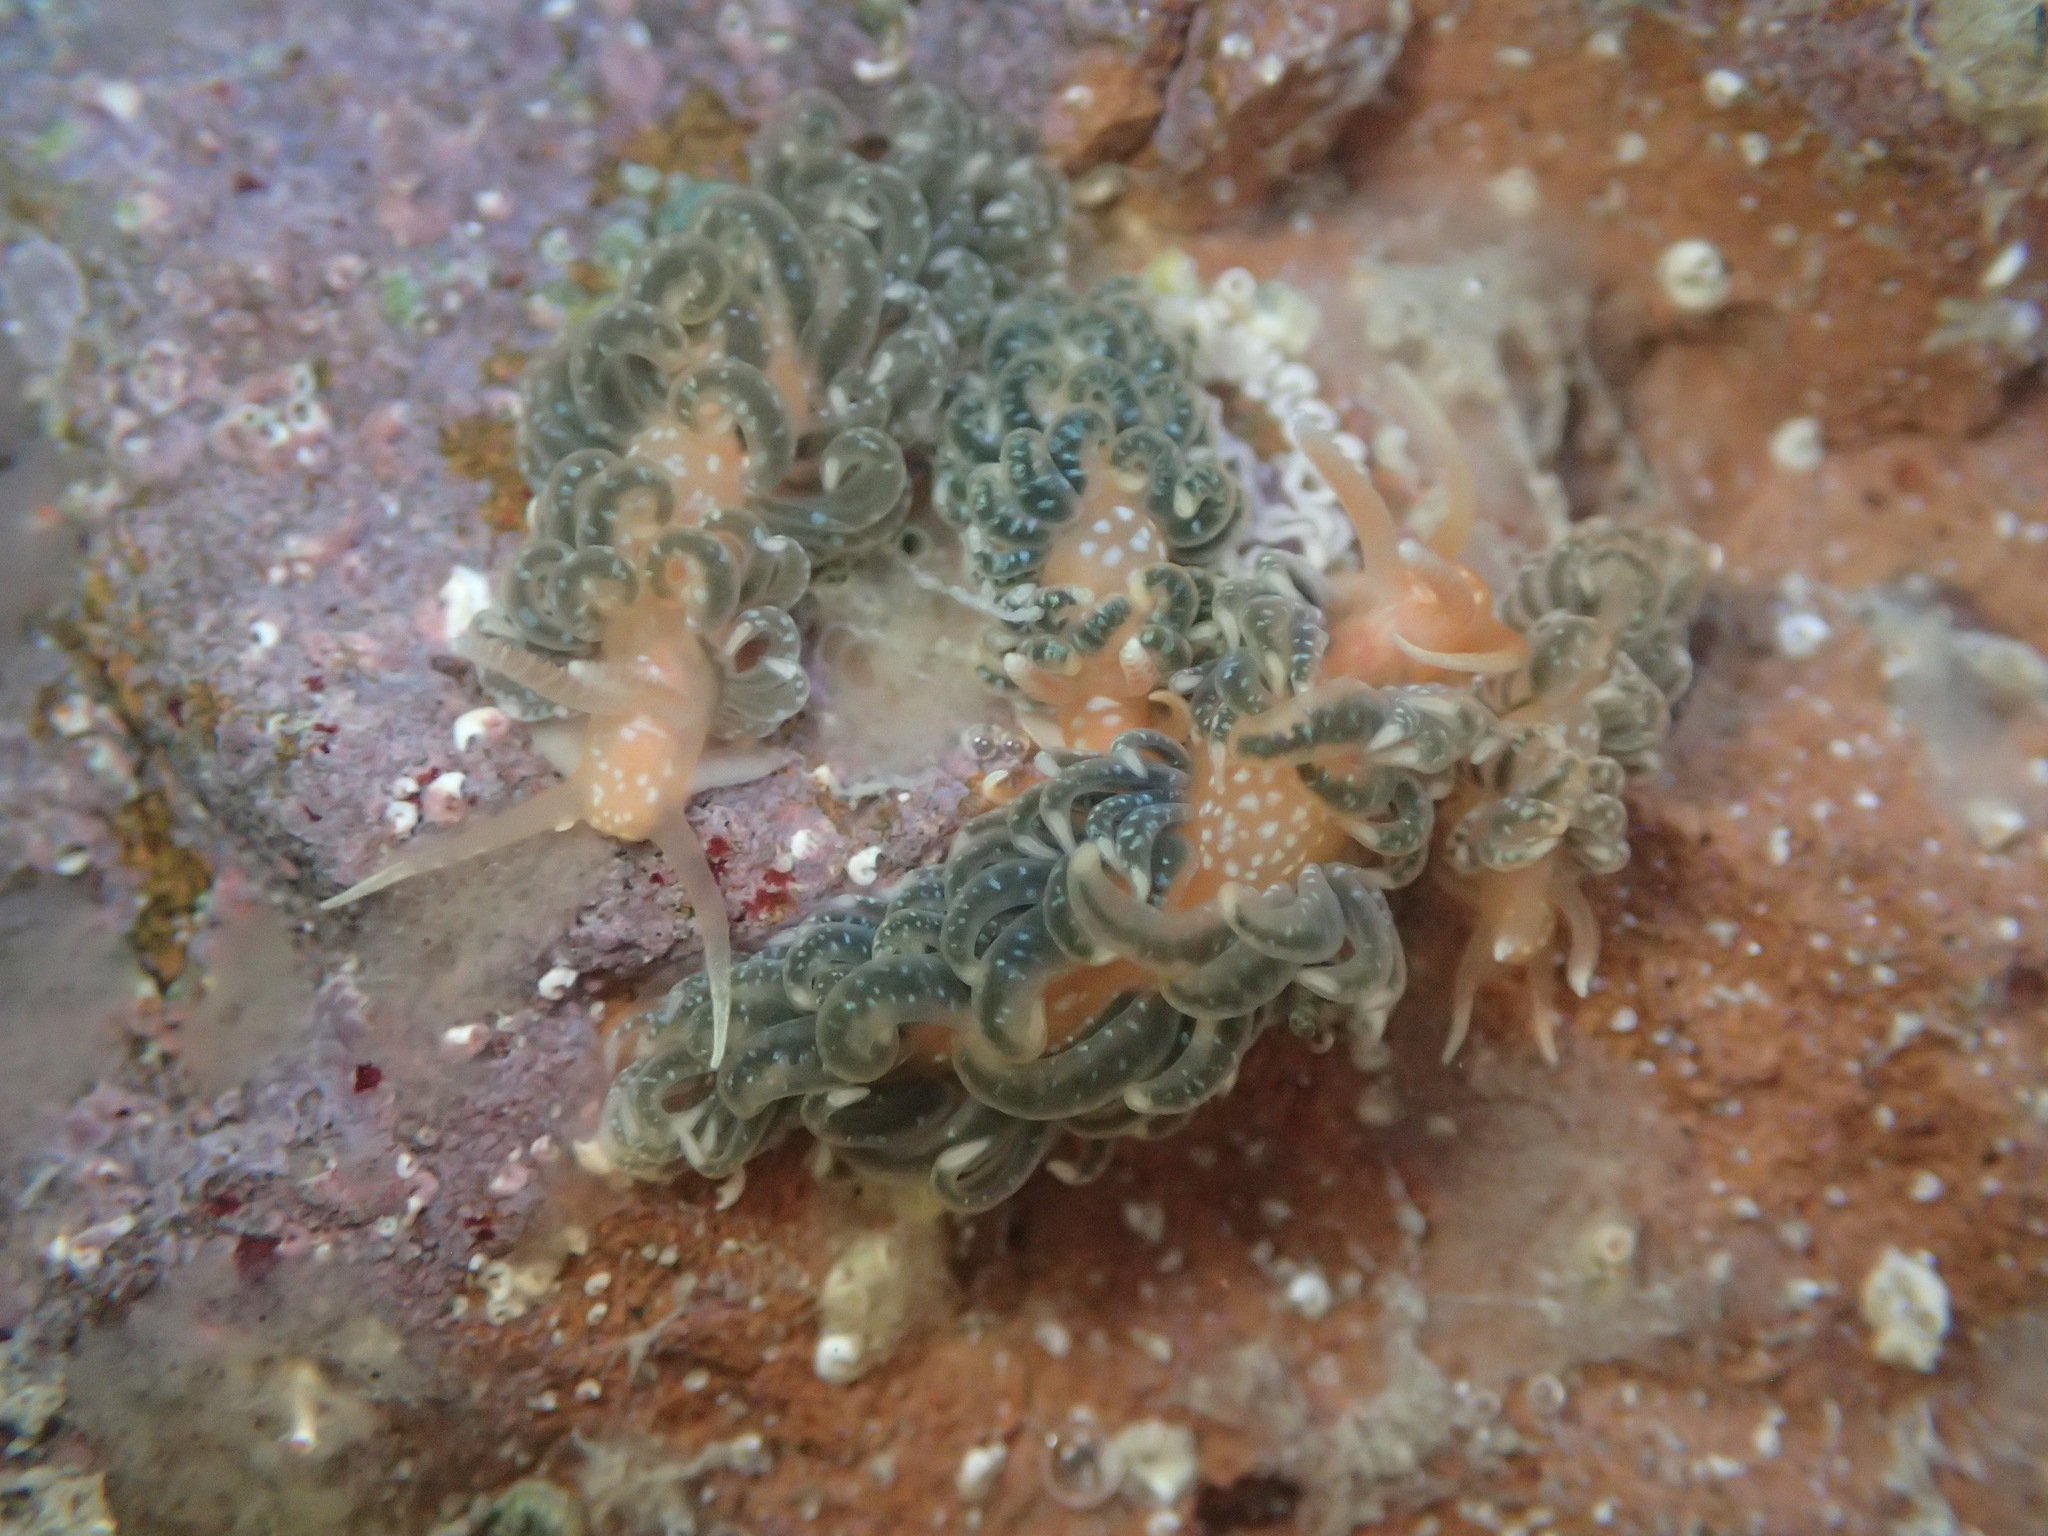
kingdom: Animalia
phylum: Mollusca
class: Gastropoda
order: Nudibranchia
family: Aeolidiidae
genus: Spurilla
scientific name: Spurilla braziliana
